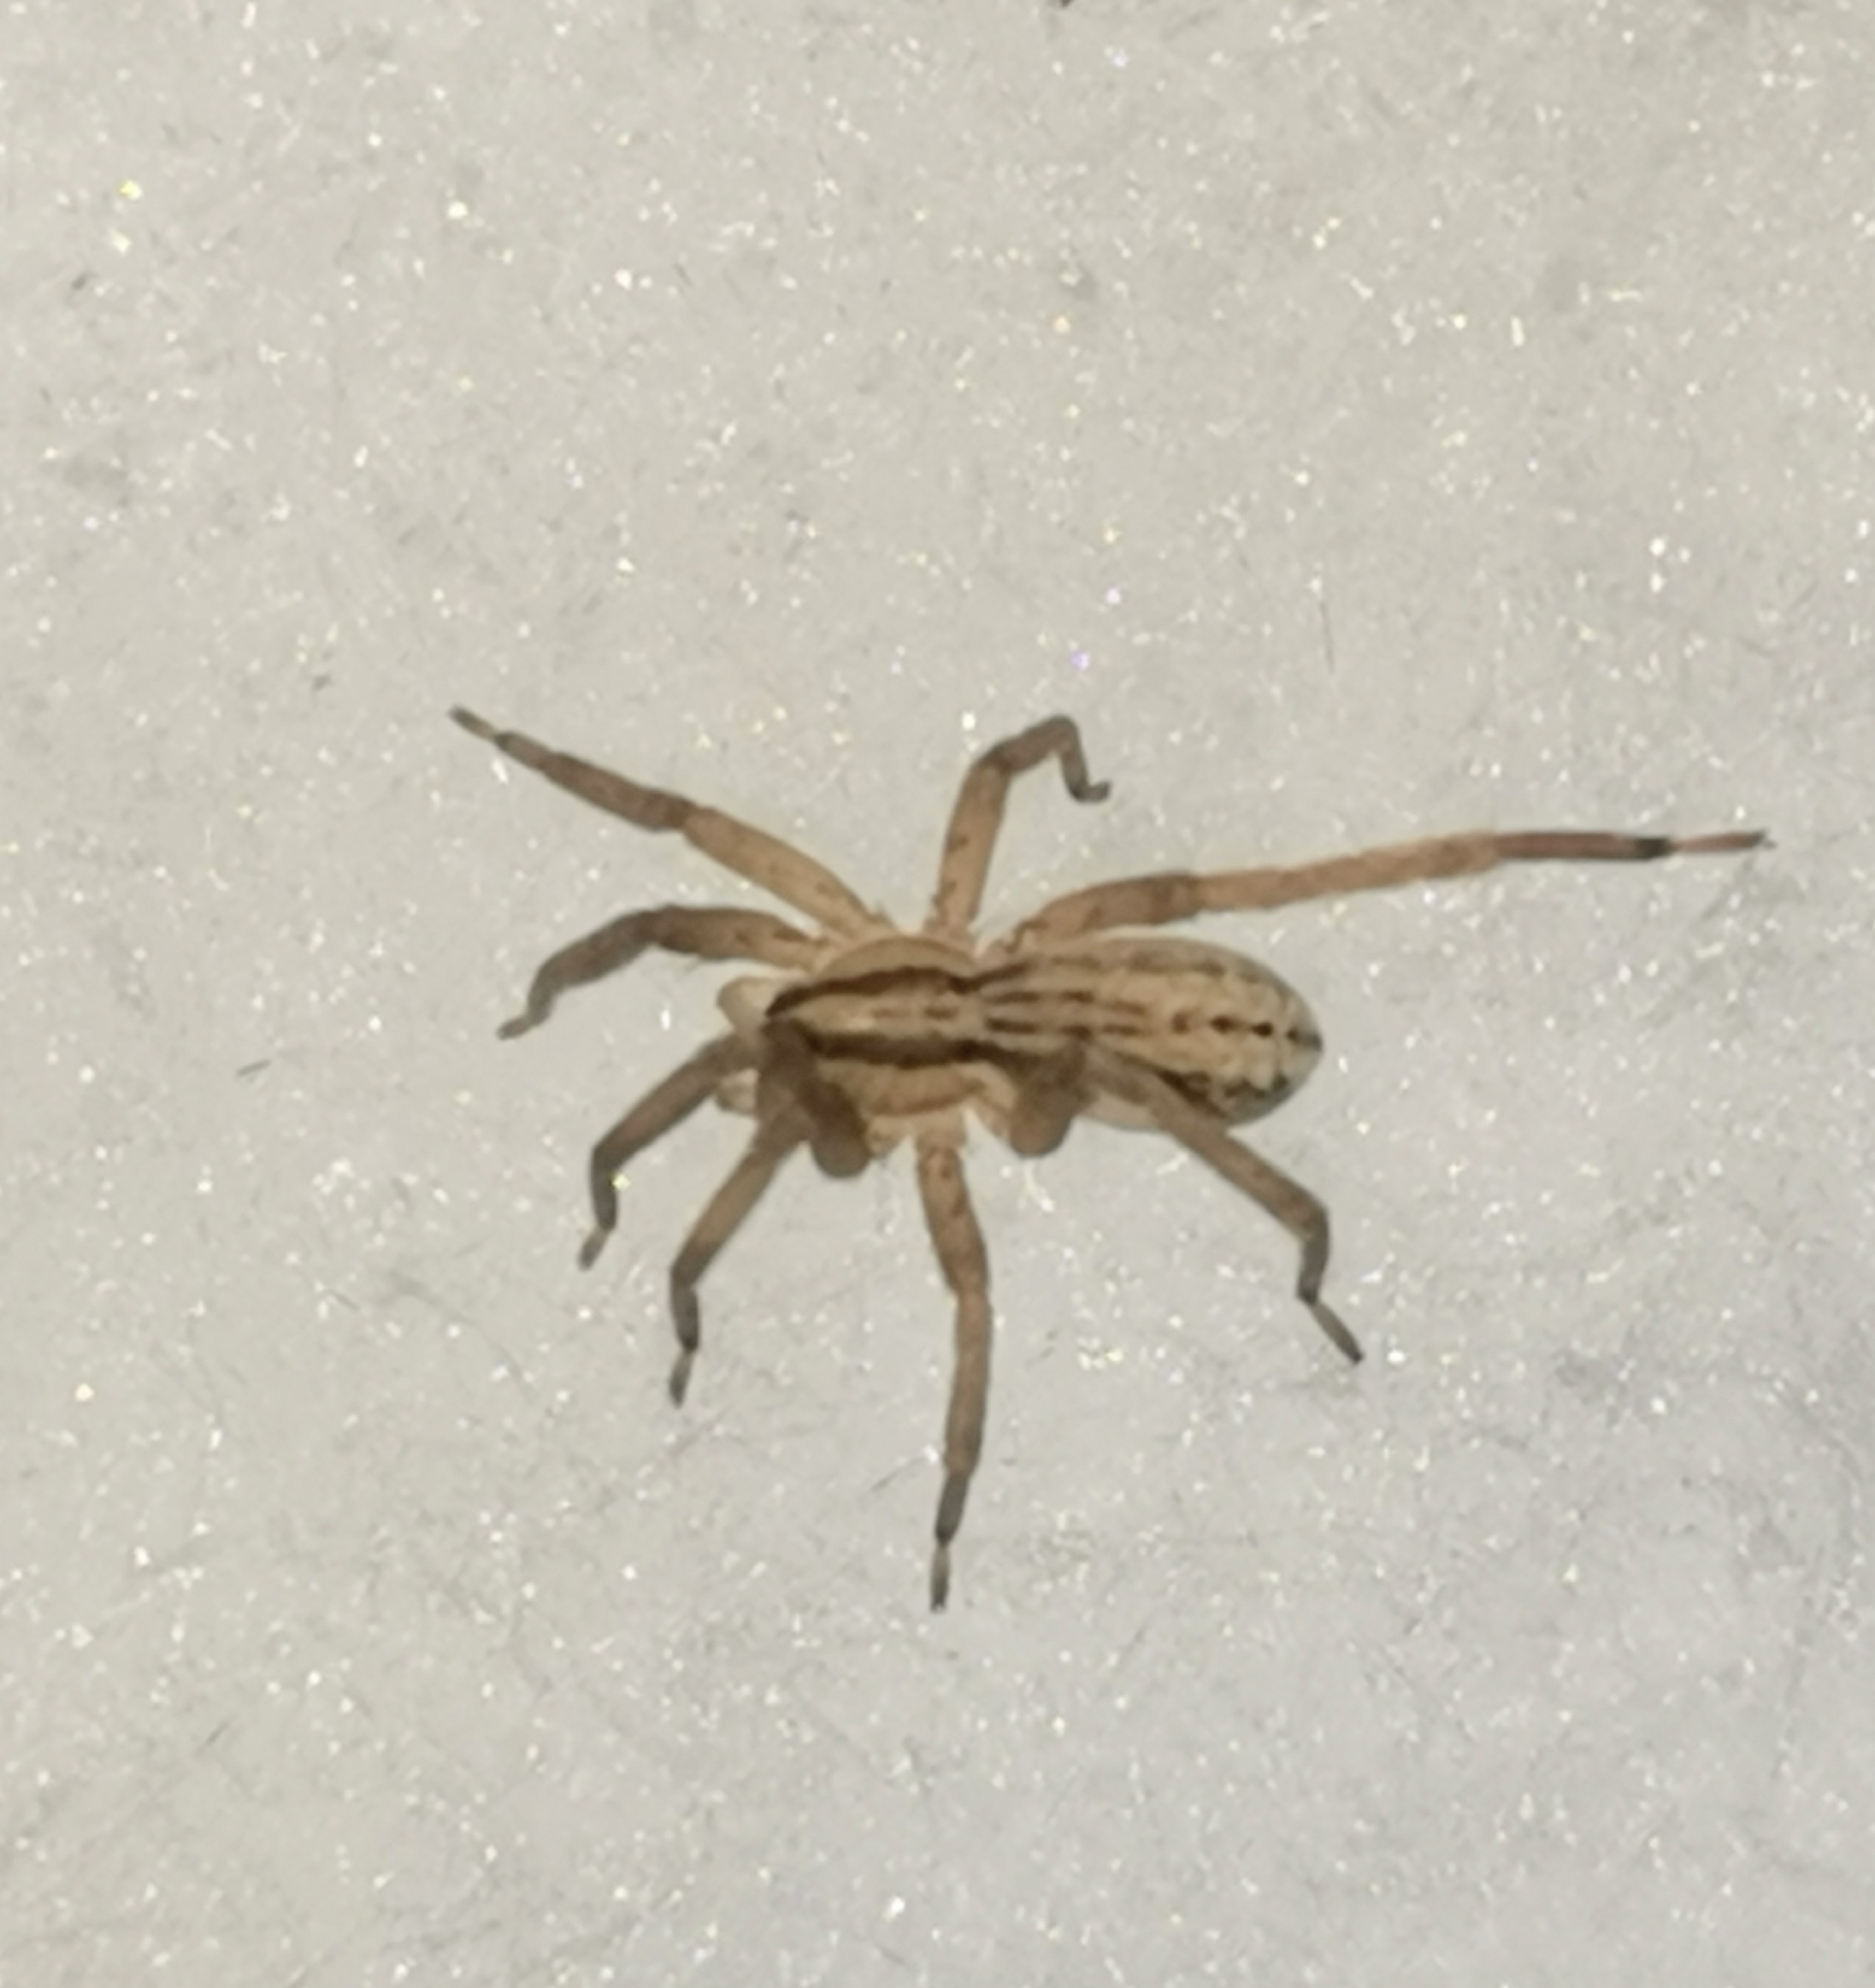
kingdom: Animalia
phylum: Arthropoda
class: Arachnida
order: Araneae
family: Miturgidae
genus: Zora
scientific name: Zora spinimana
